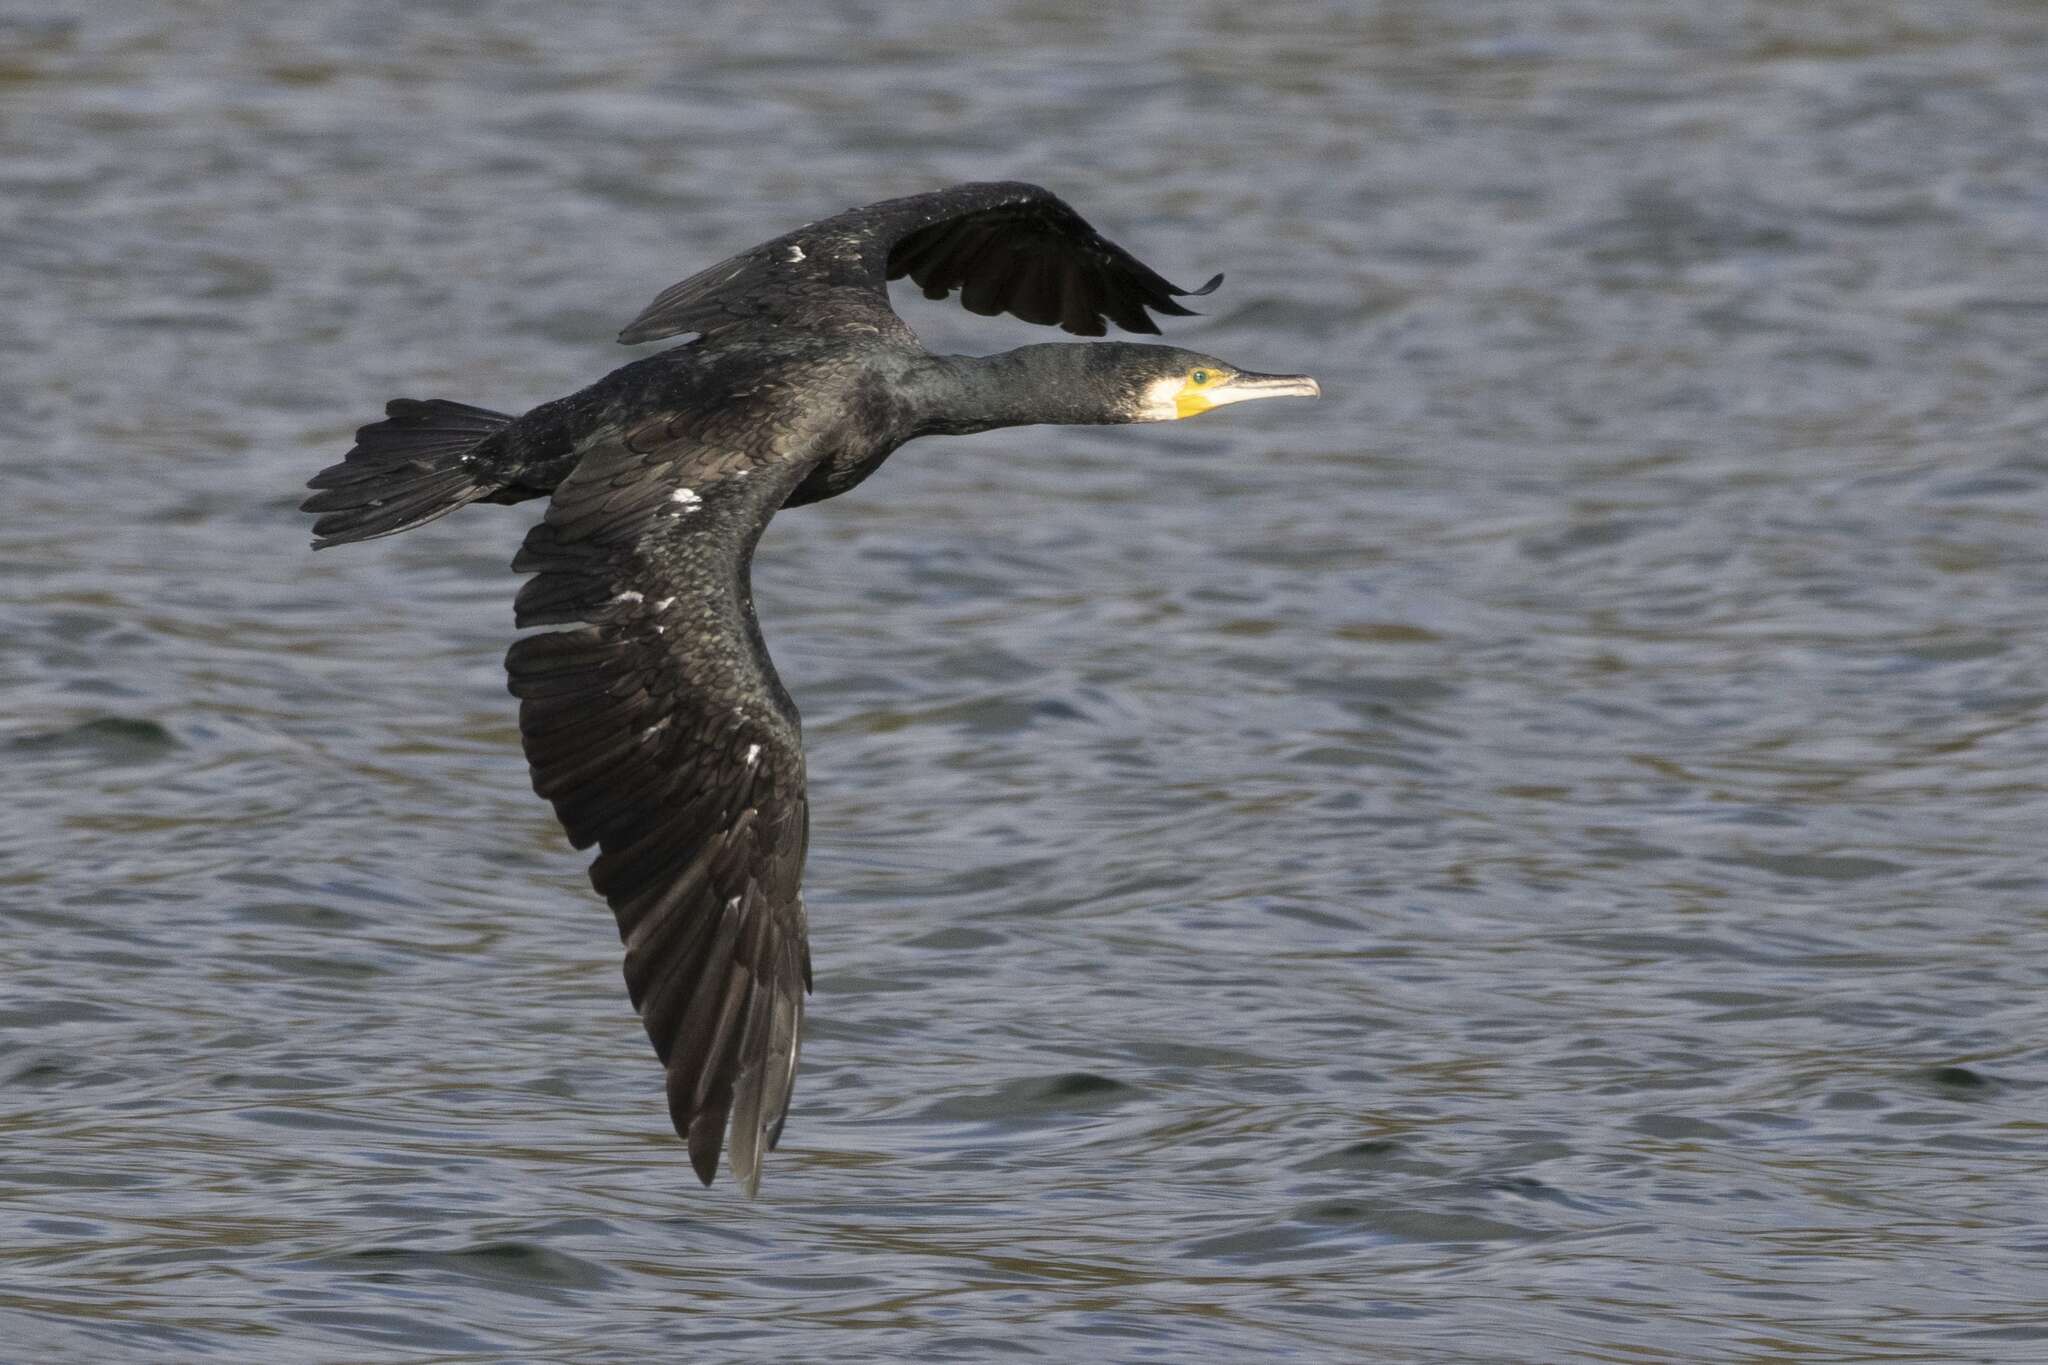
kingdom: Animalia
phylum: Chordata
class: Aves
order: Suliformes
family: Phalacrocoracidae
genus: Phalacrocorax
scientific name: Phalacrocorax carbo
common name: Great cormorant
